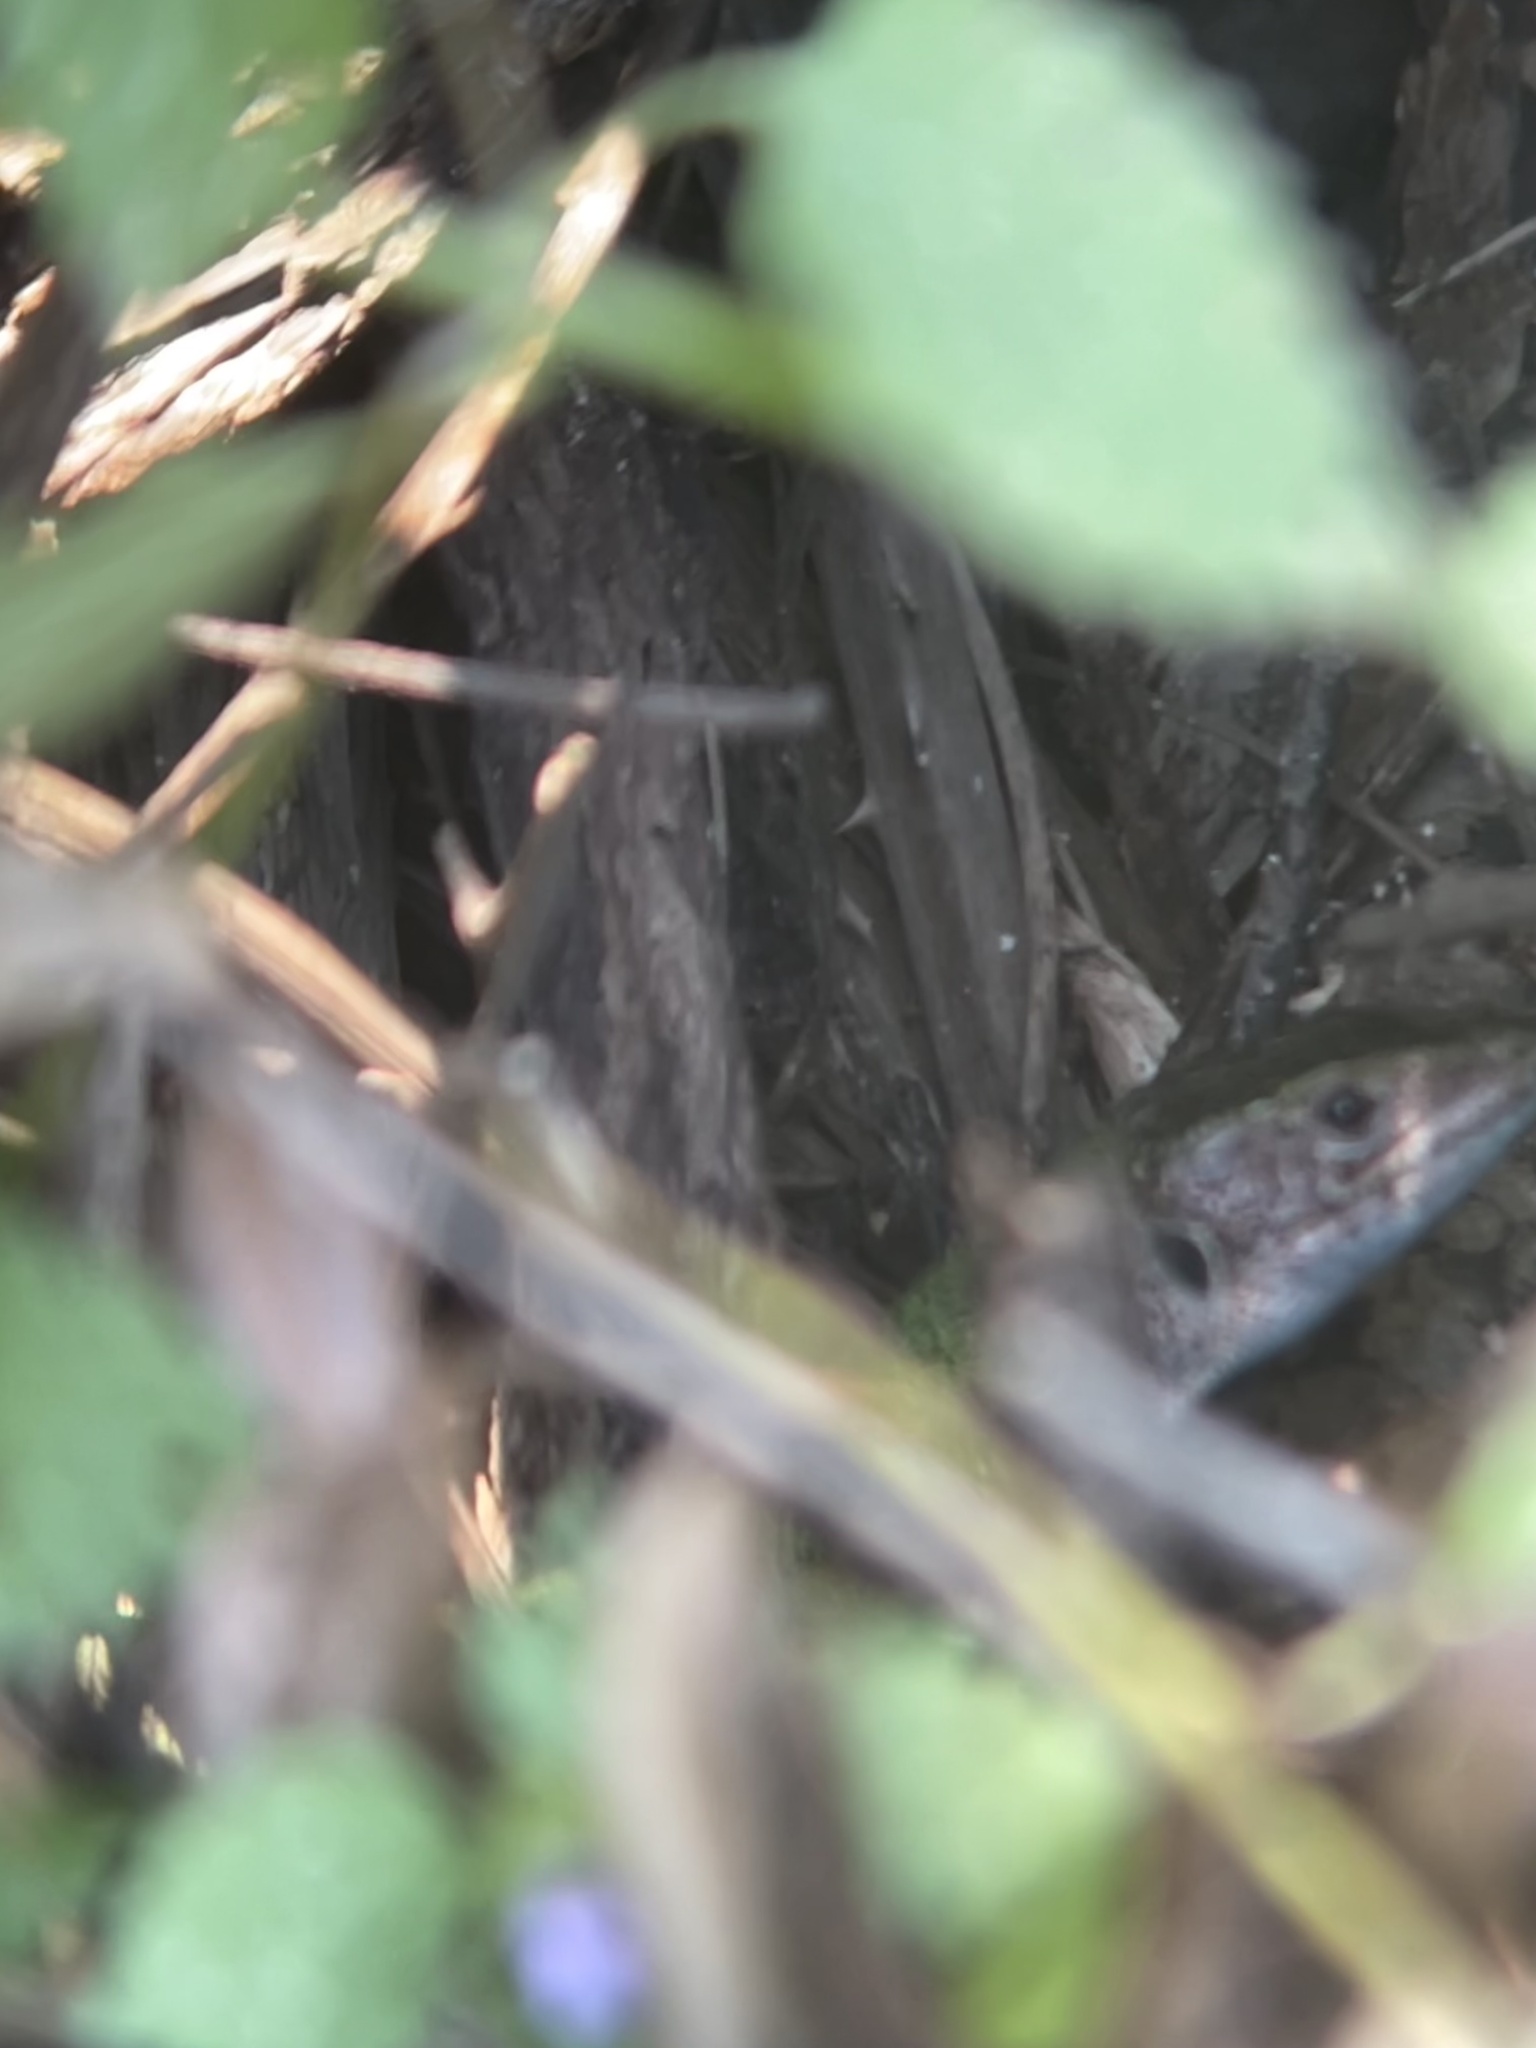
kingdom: Animalia
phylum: Chordata
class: Squamata
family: Lacertidae
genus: Lacerta
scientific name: Lacerta viridis
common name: European green lizard
